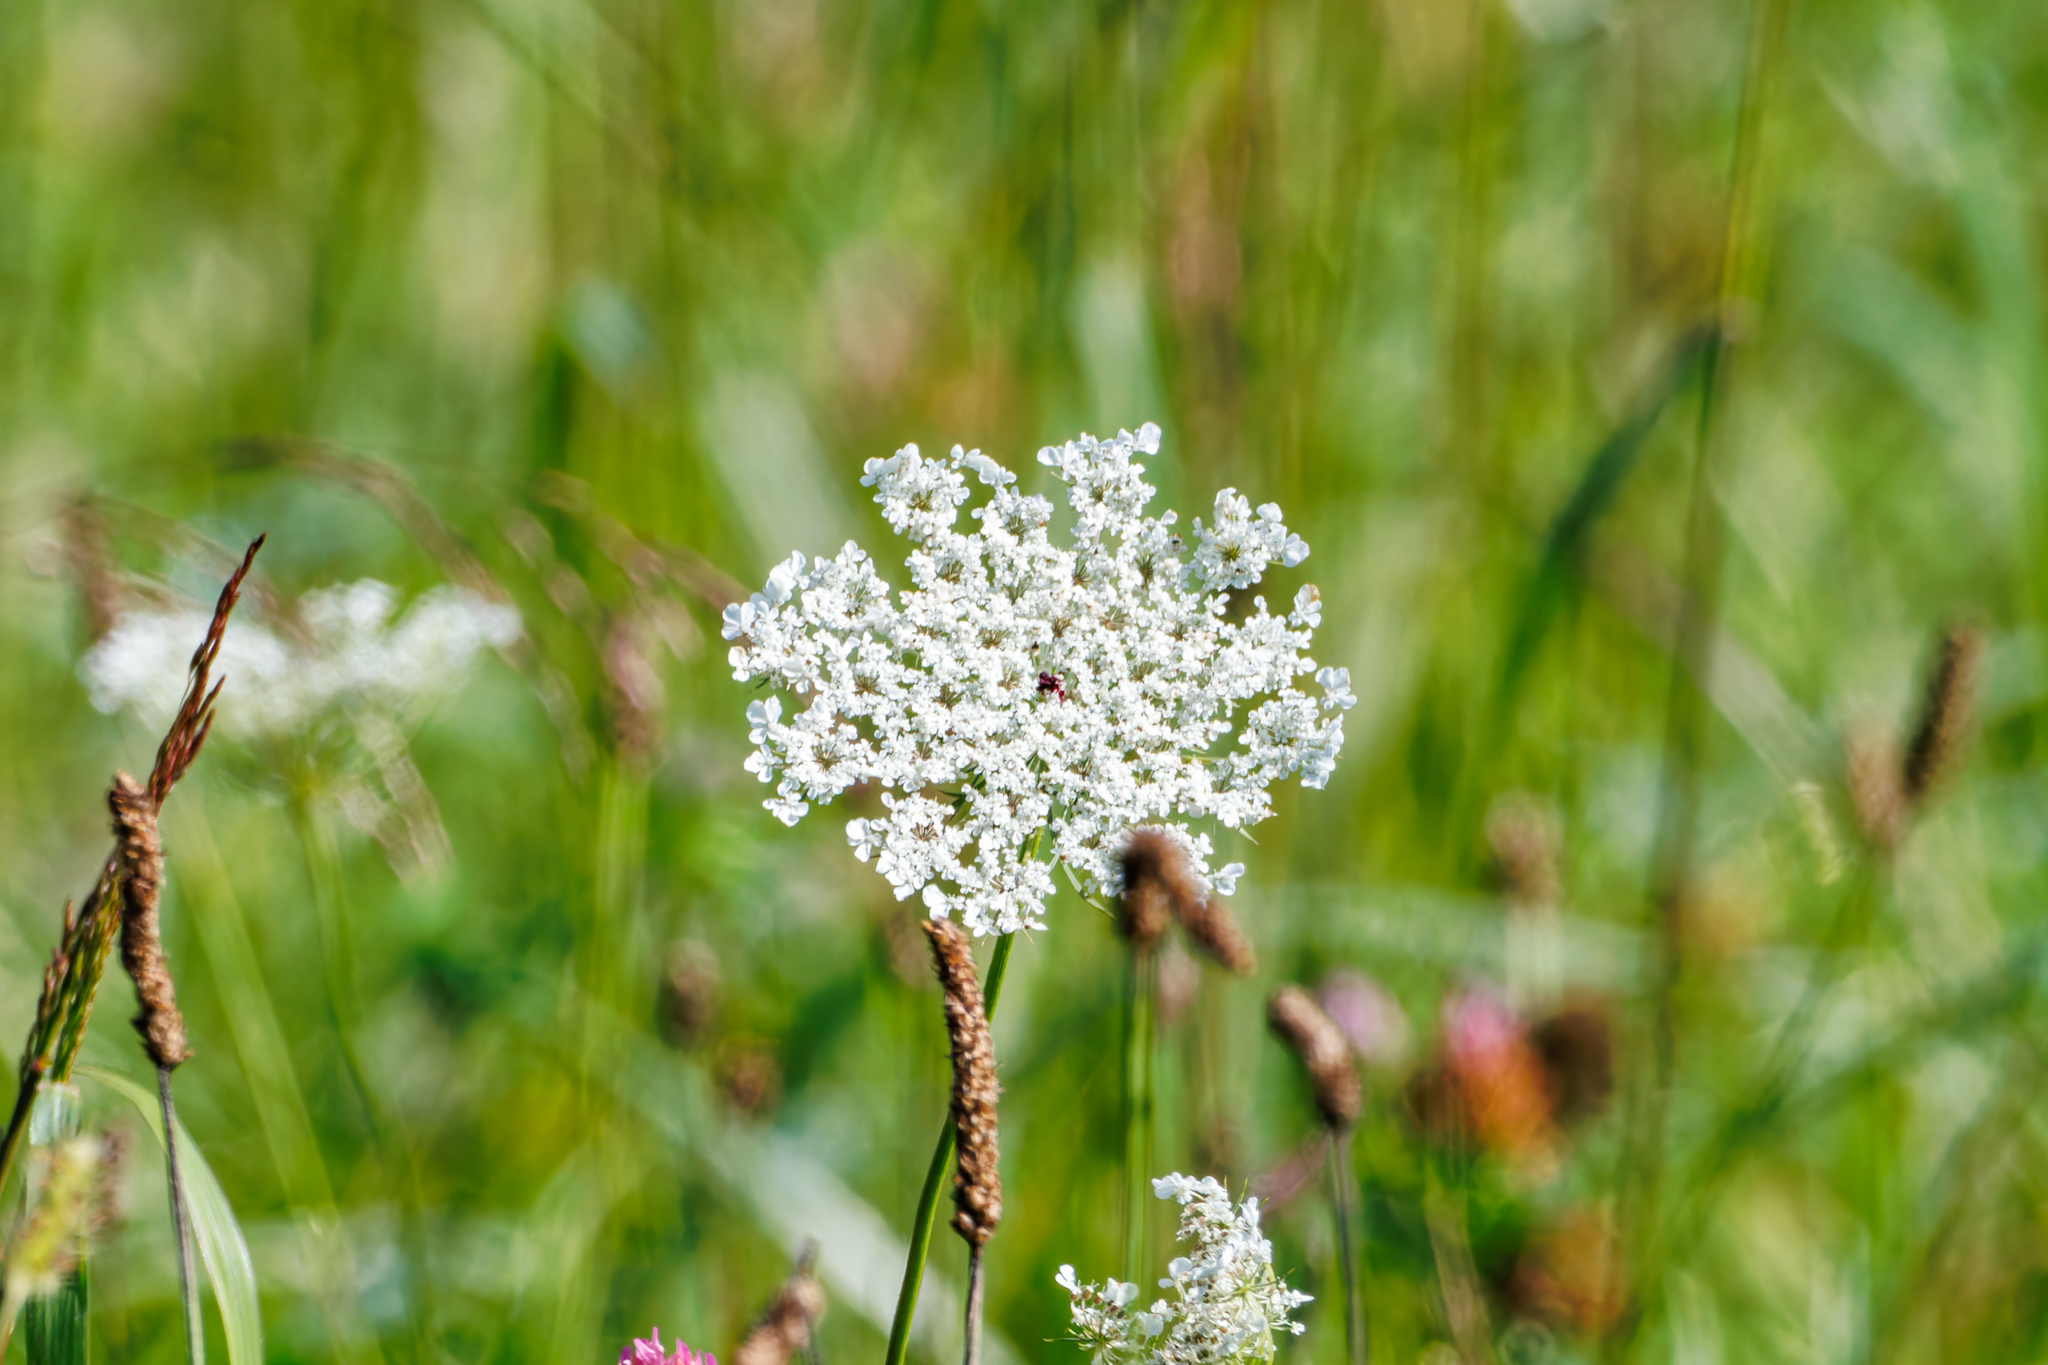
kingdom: Plantae
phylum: Tracheophyta
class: Magnoliopsida
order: Apiales
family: Apiaceae
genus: Daucus
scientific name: Daucus carota
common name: Wild carrot
